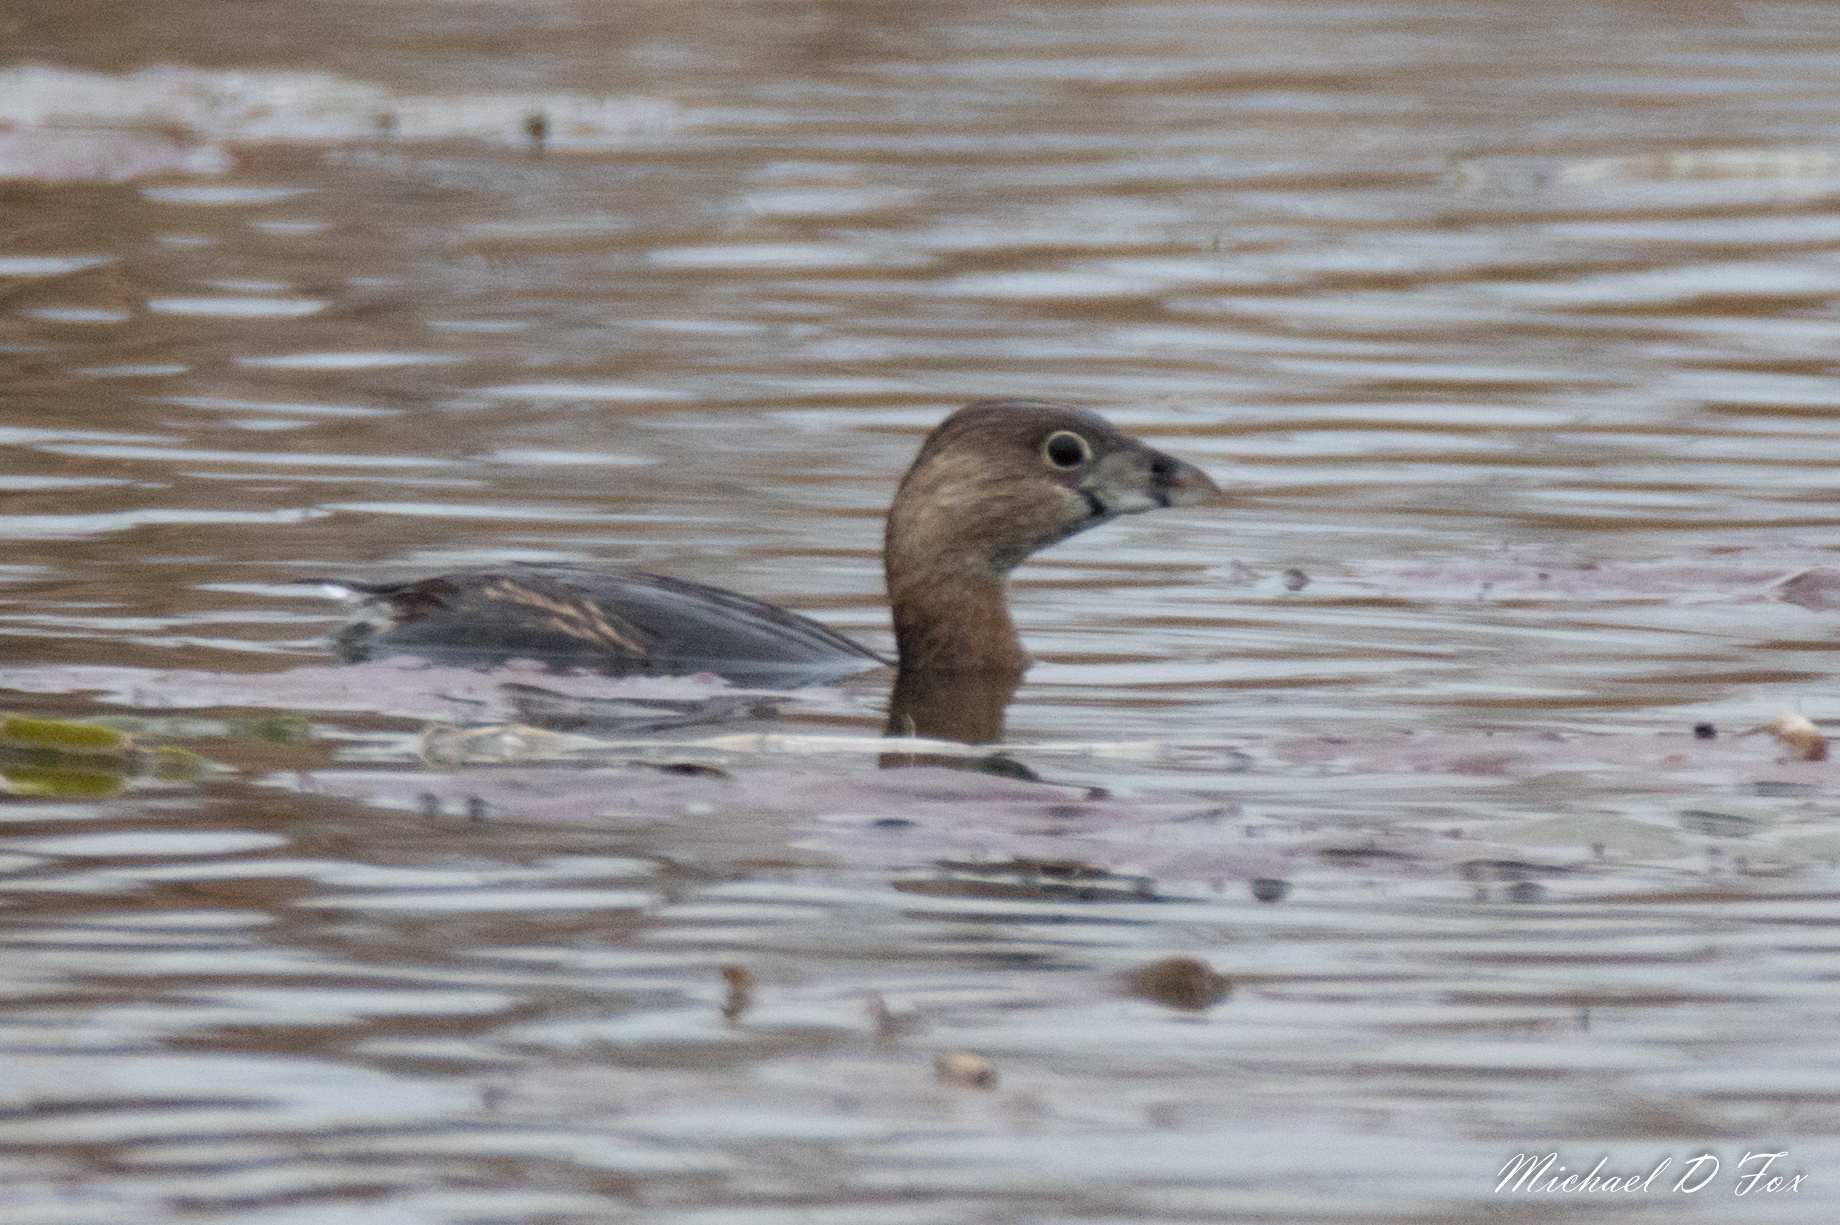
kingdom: Animalia
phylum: Chordata
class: Aves
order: Podicipediformes
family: Podicipedidae
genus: Podilymbus
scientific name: Podilymbus podiceps
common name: Pied-billed grebe
